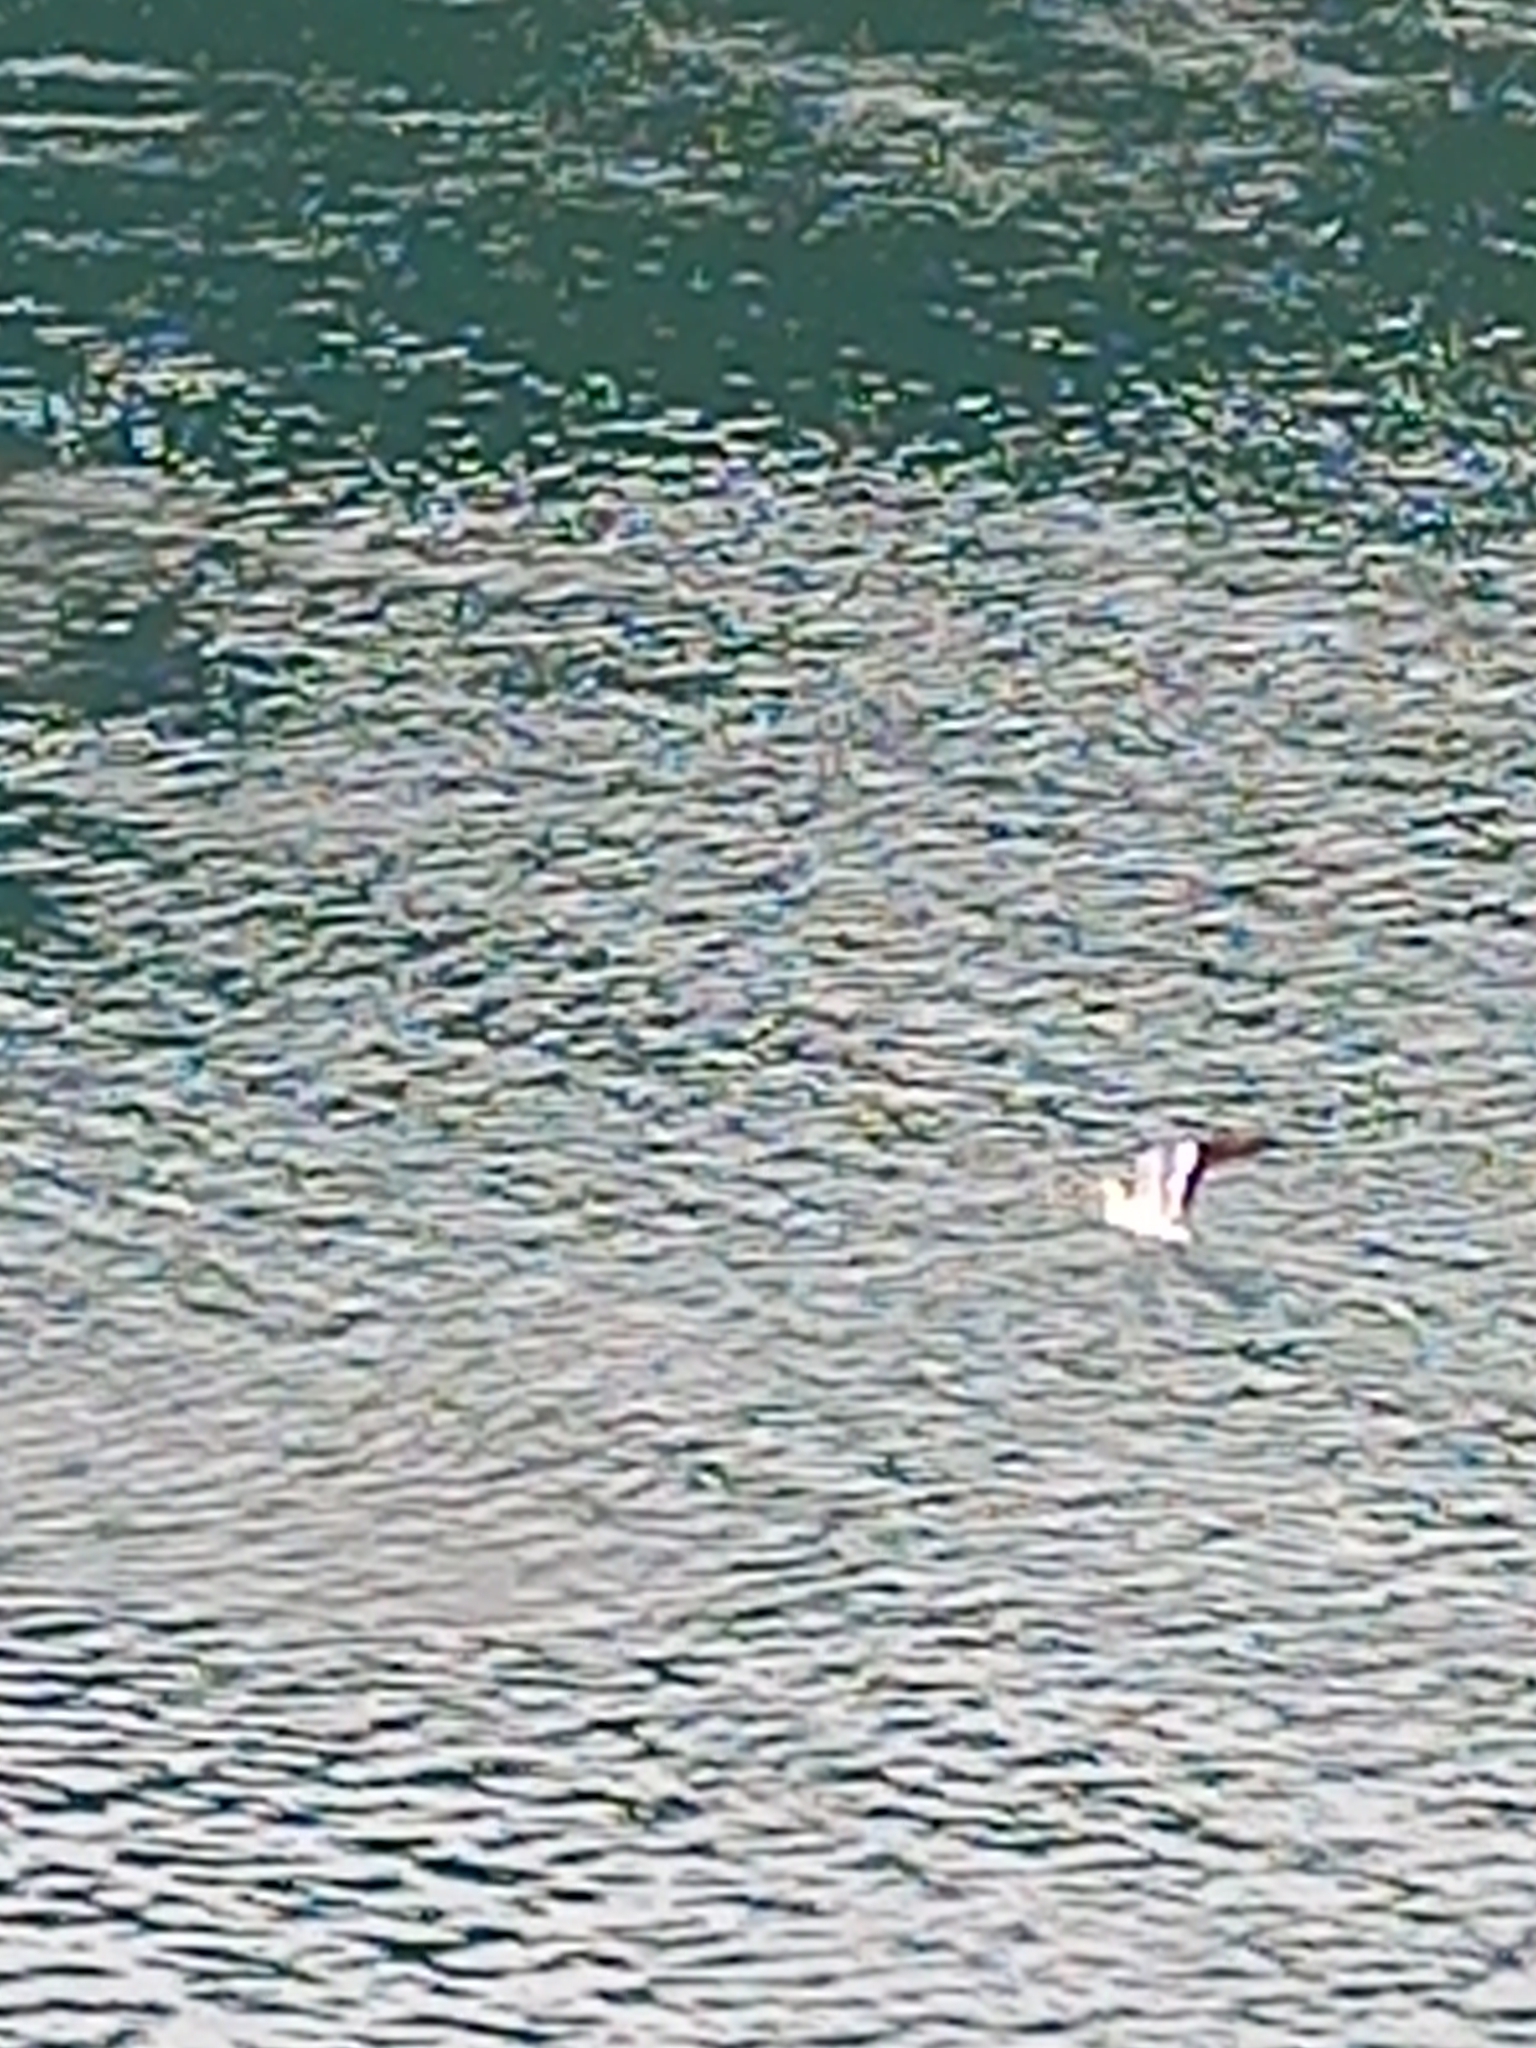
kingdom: Animalia
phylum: Chordata
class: Aves
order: Suliformes
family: Sulidae
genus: Morus
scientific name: Morus serrator
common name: Australasian gannet
